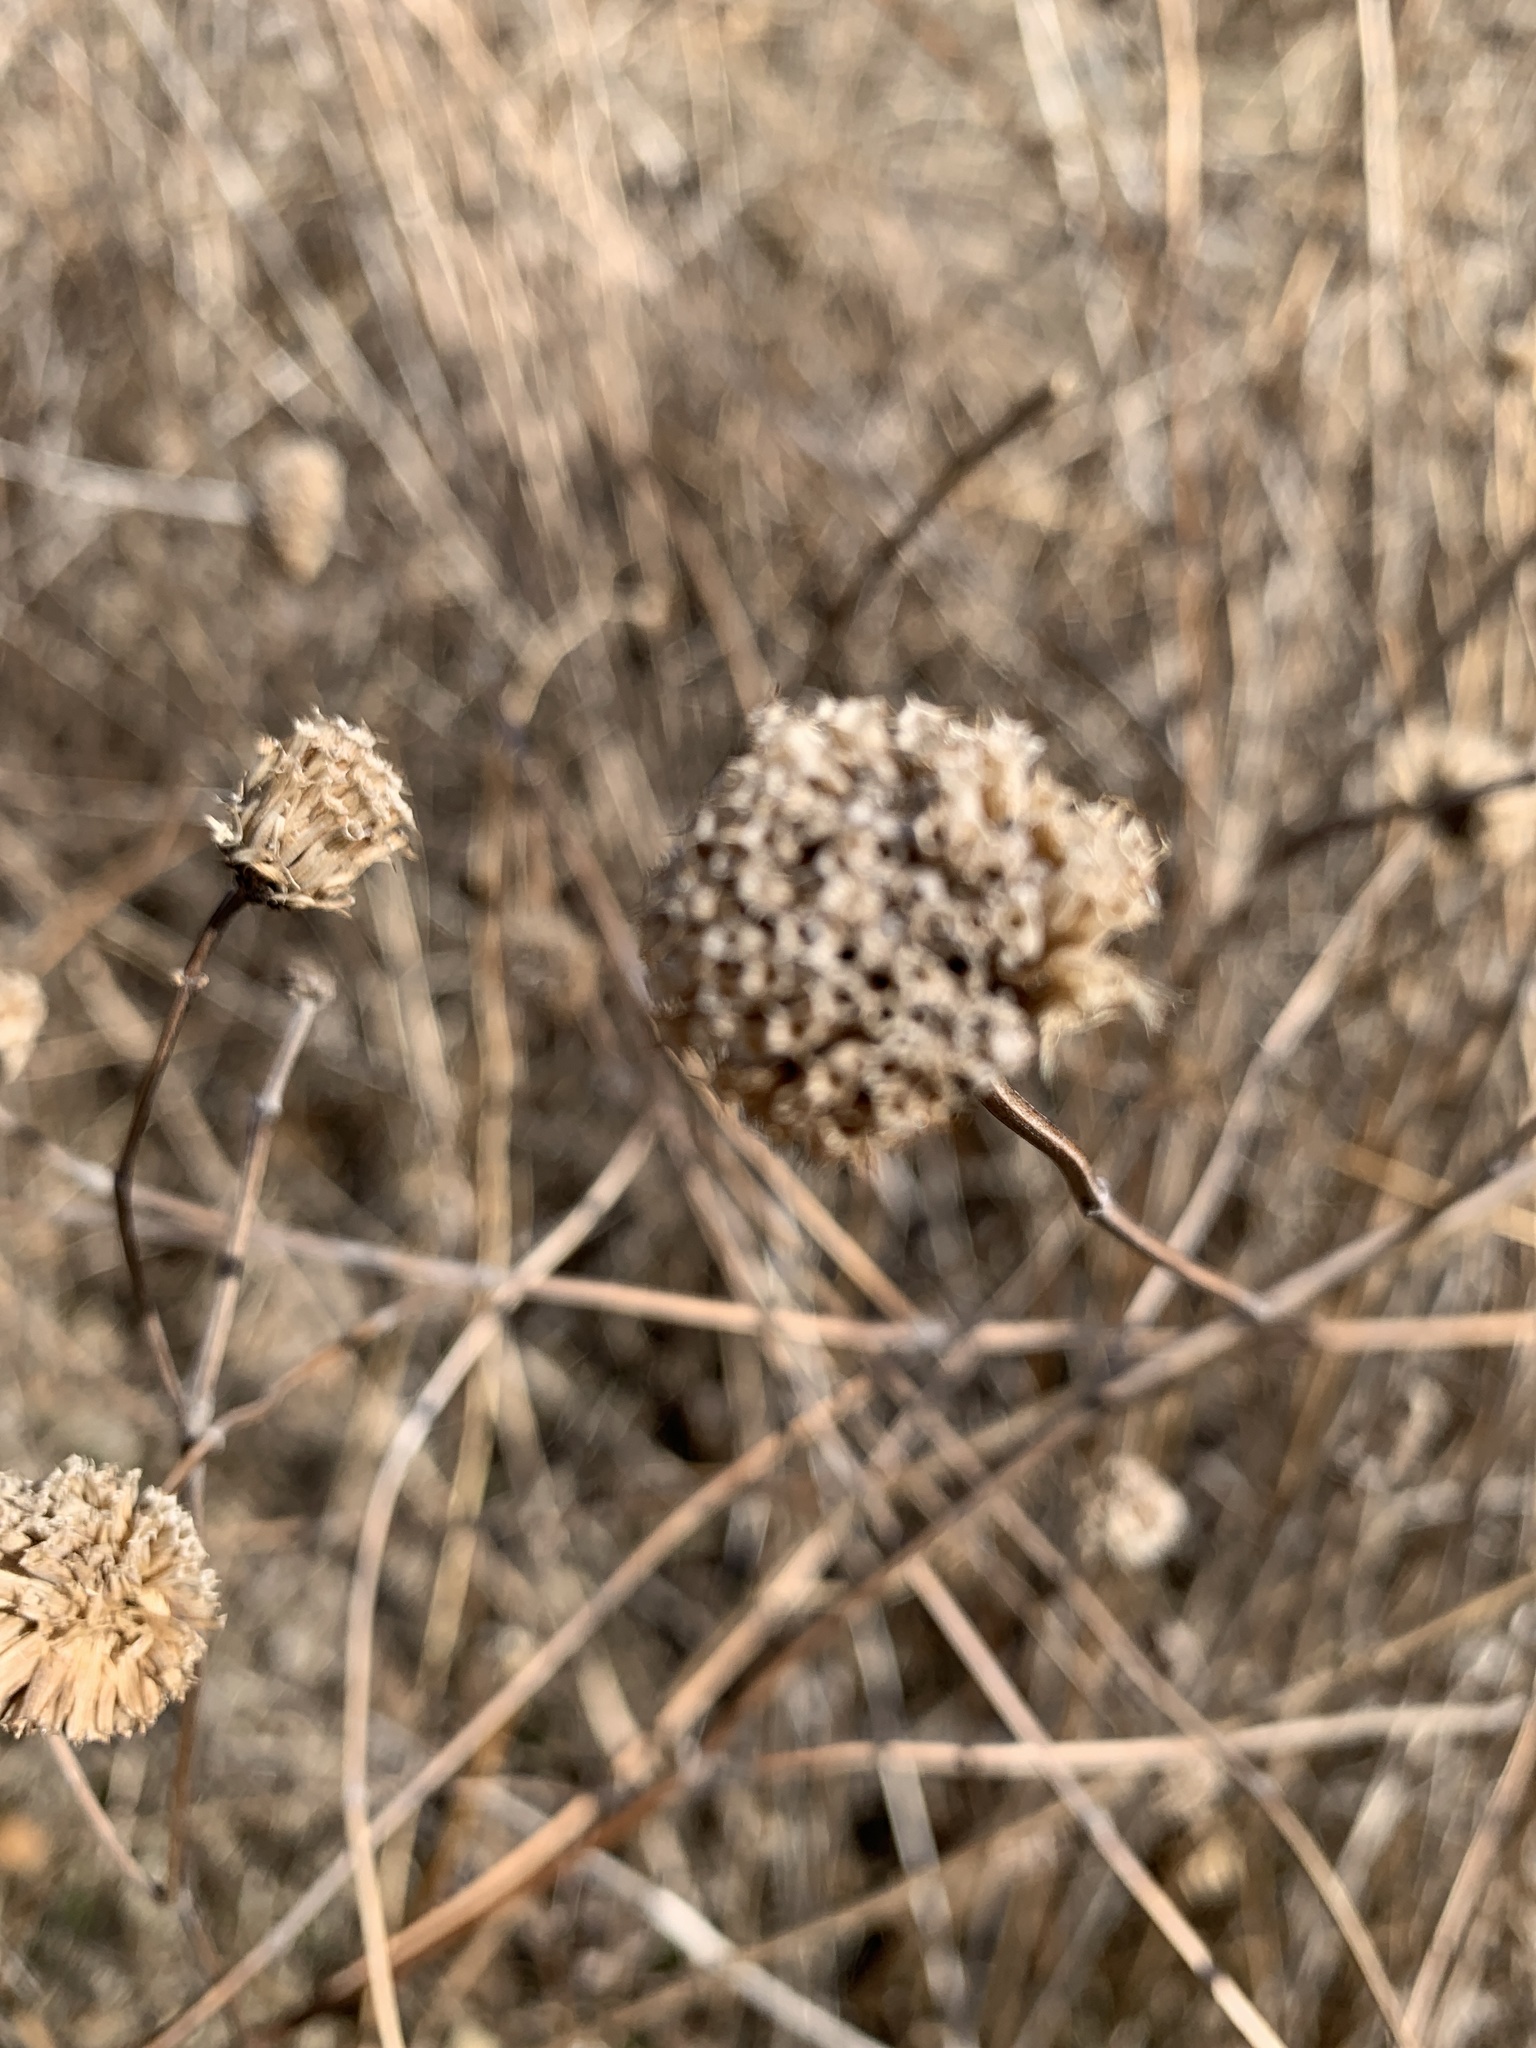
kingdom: Plantae
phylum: Tracheophyta
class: Magnoliopsida
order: Lamiales
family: Lamiaceae
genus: Monarda
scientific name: Monarda fistulosa
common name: Purple beebalm
